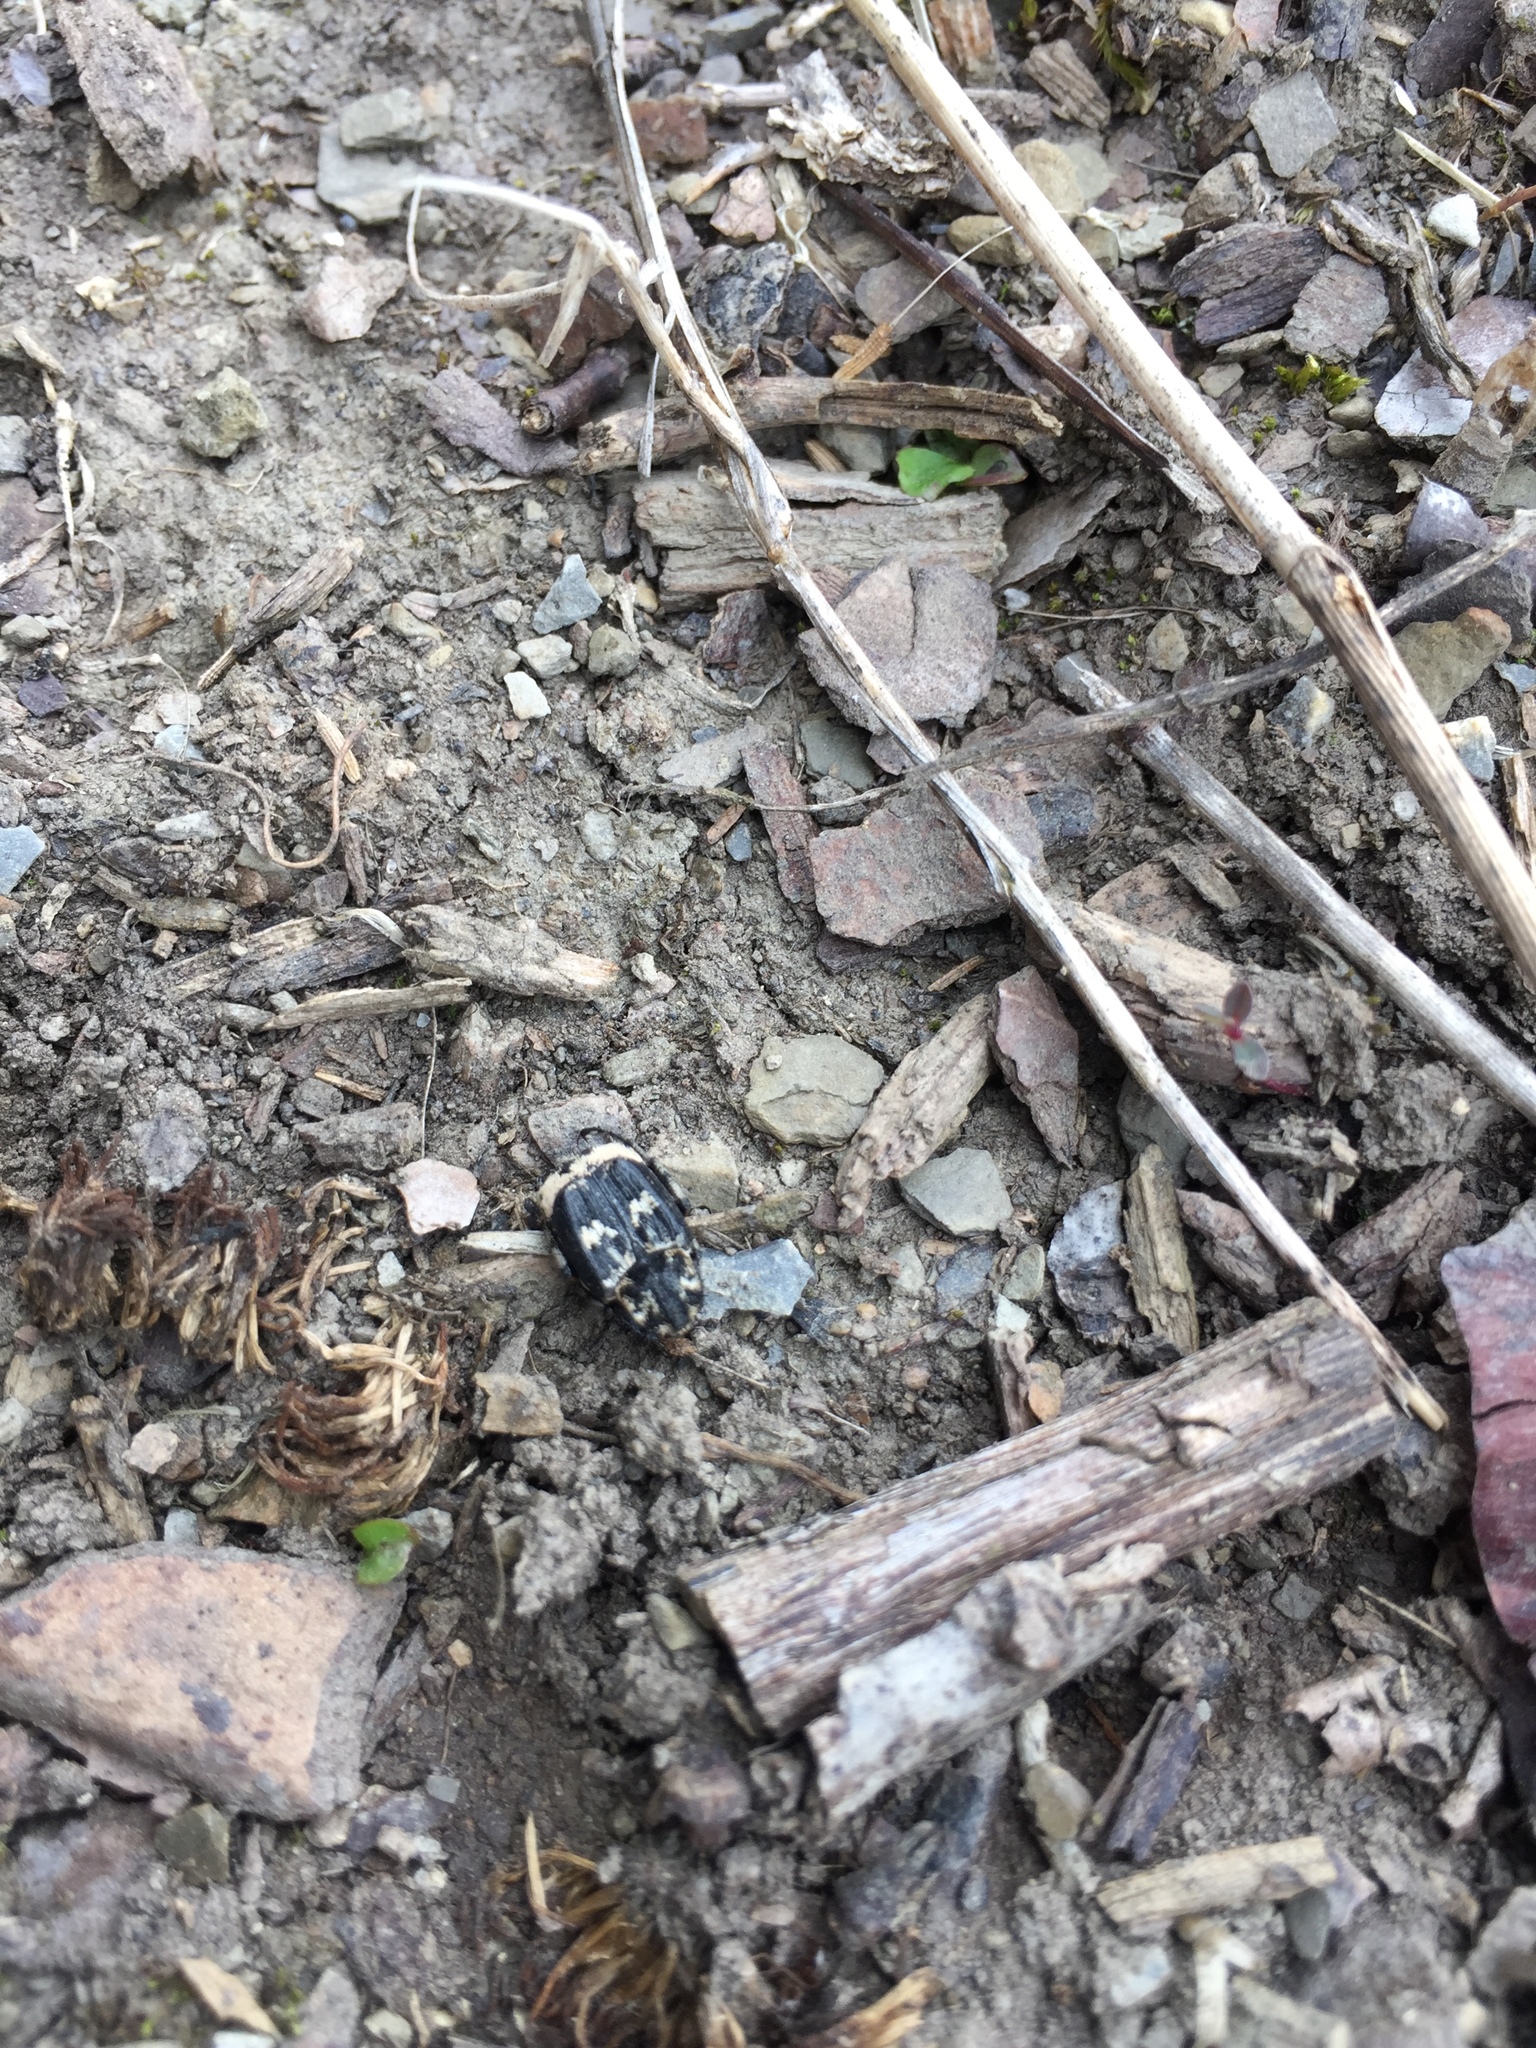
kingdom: Animalia
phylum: Arthropoda
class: Insecta
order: Coleoptera
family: Scarabaeidae
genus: Valgus
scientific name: Valgus hemipterus
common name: Bug flower chafer
